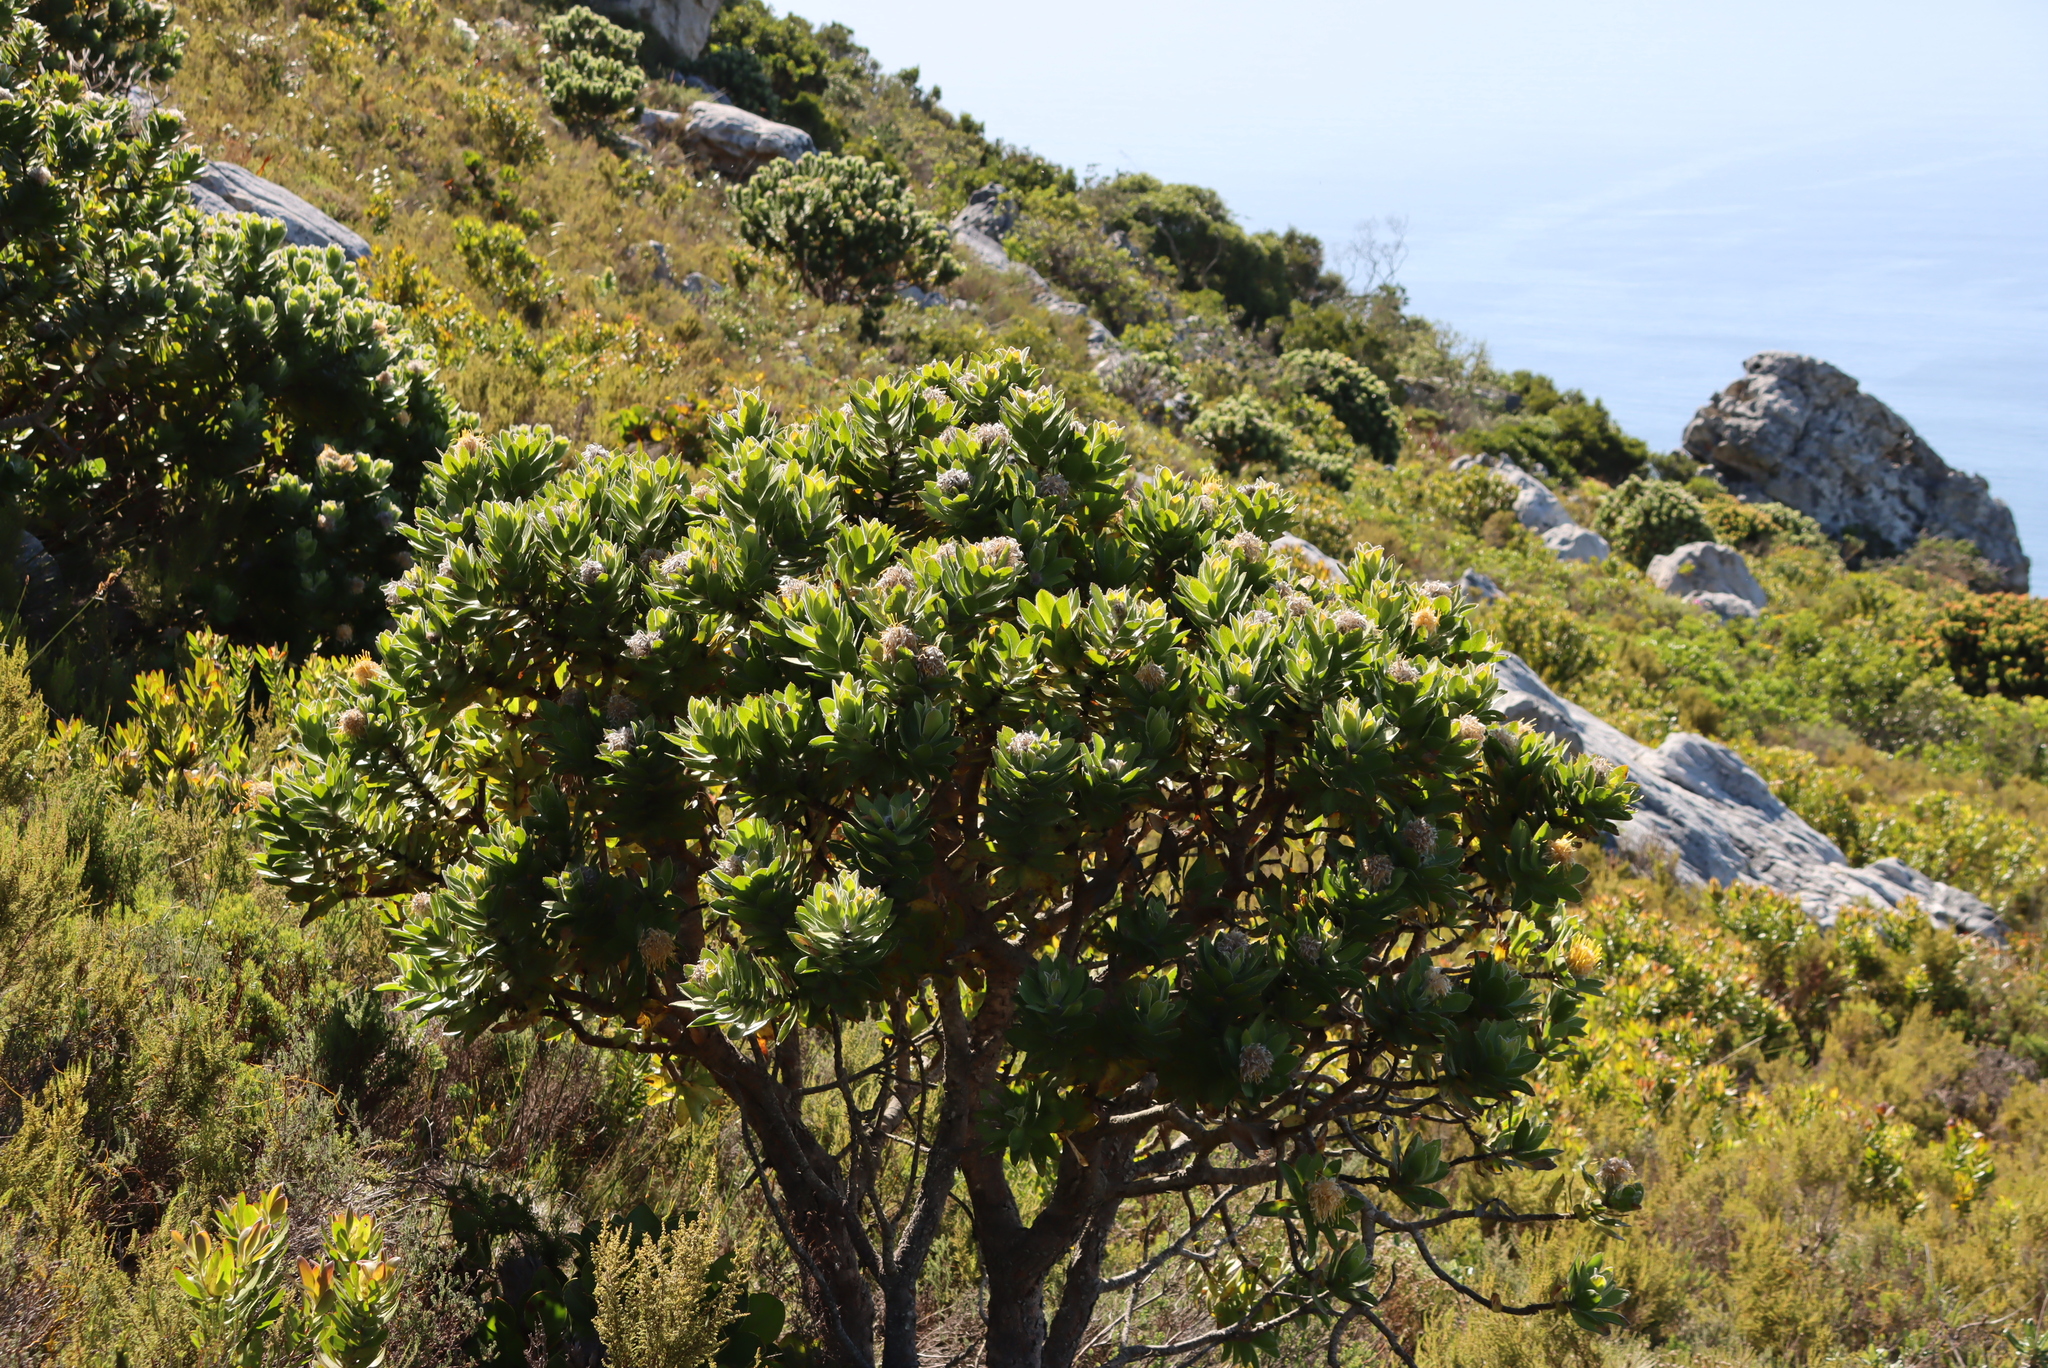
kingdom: Plantae
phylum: Tracheophyta
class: Magnoliopsida
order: Proteales
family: Proteaceae
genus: Leucospermum
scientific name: Leucospermum conocarpodendron
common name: Tree pincushion
